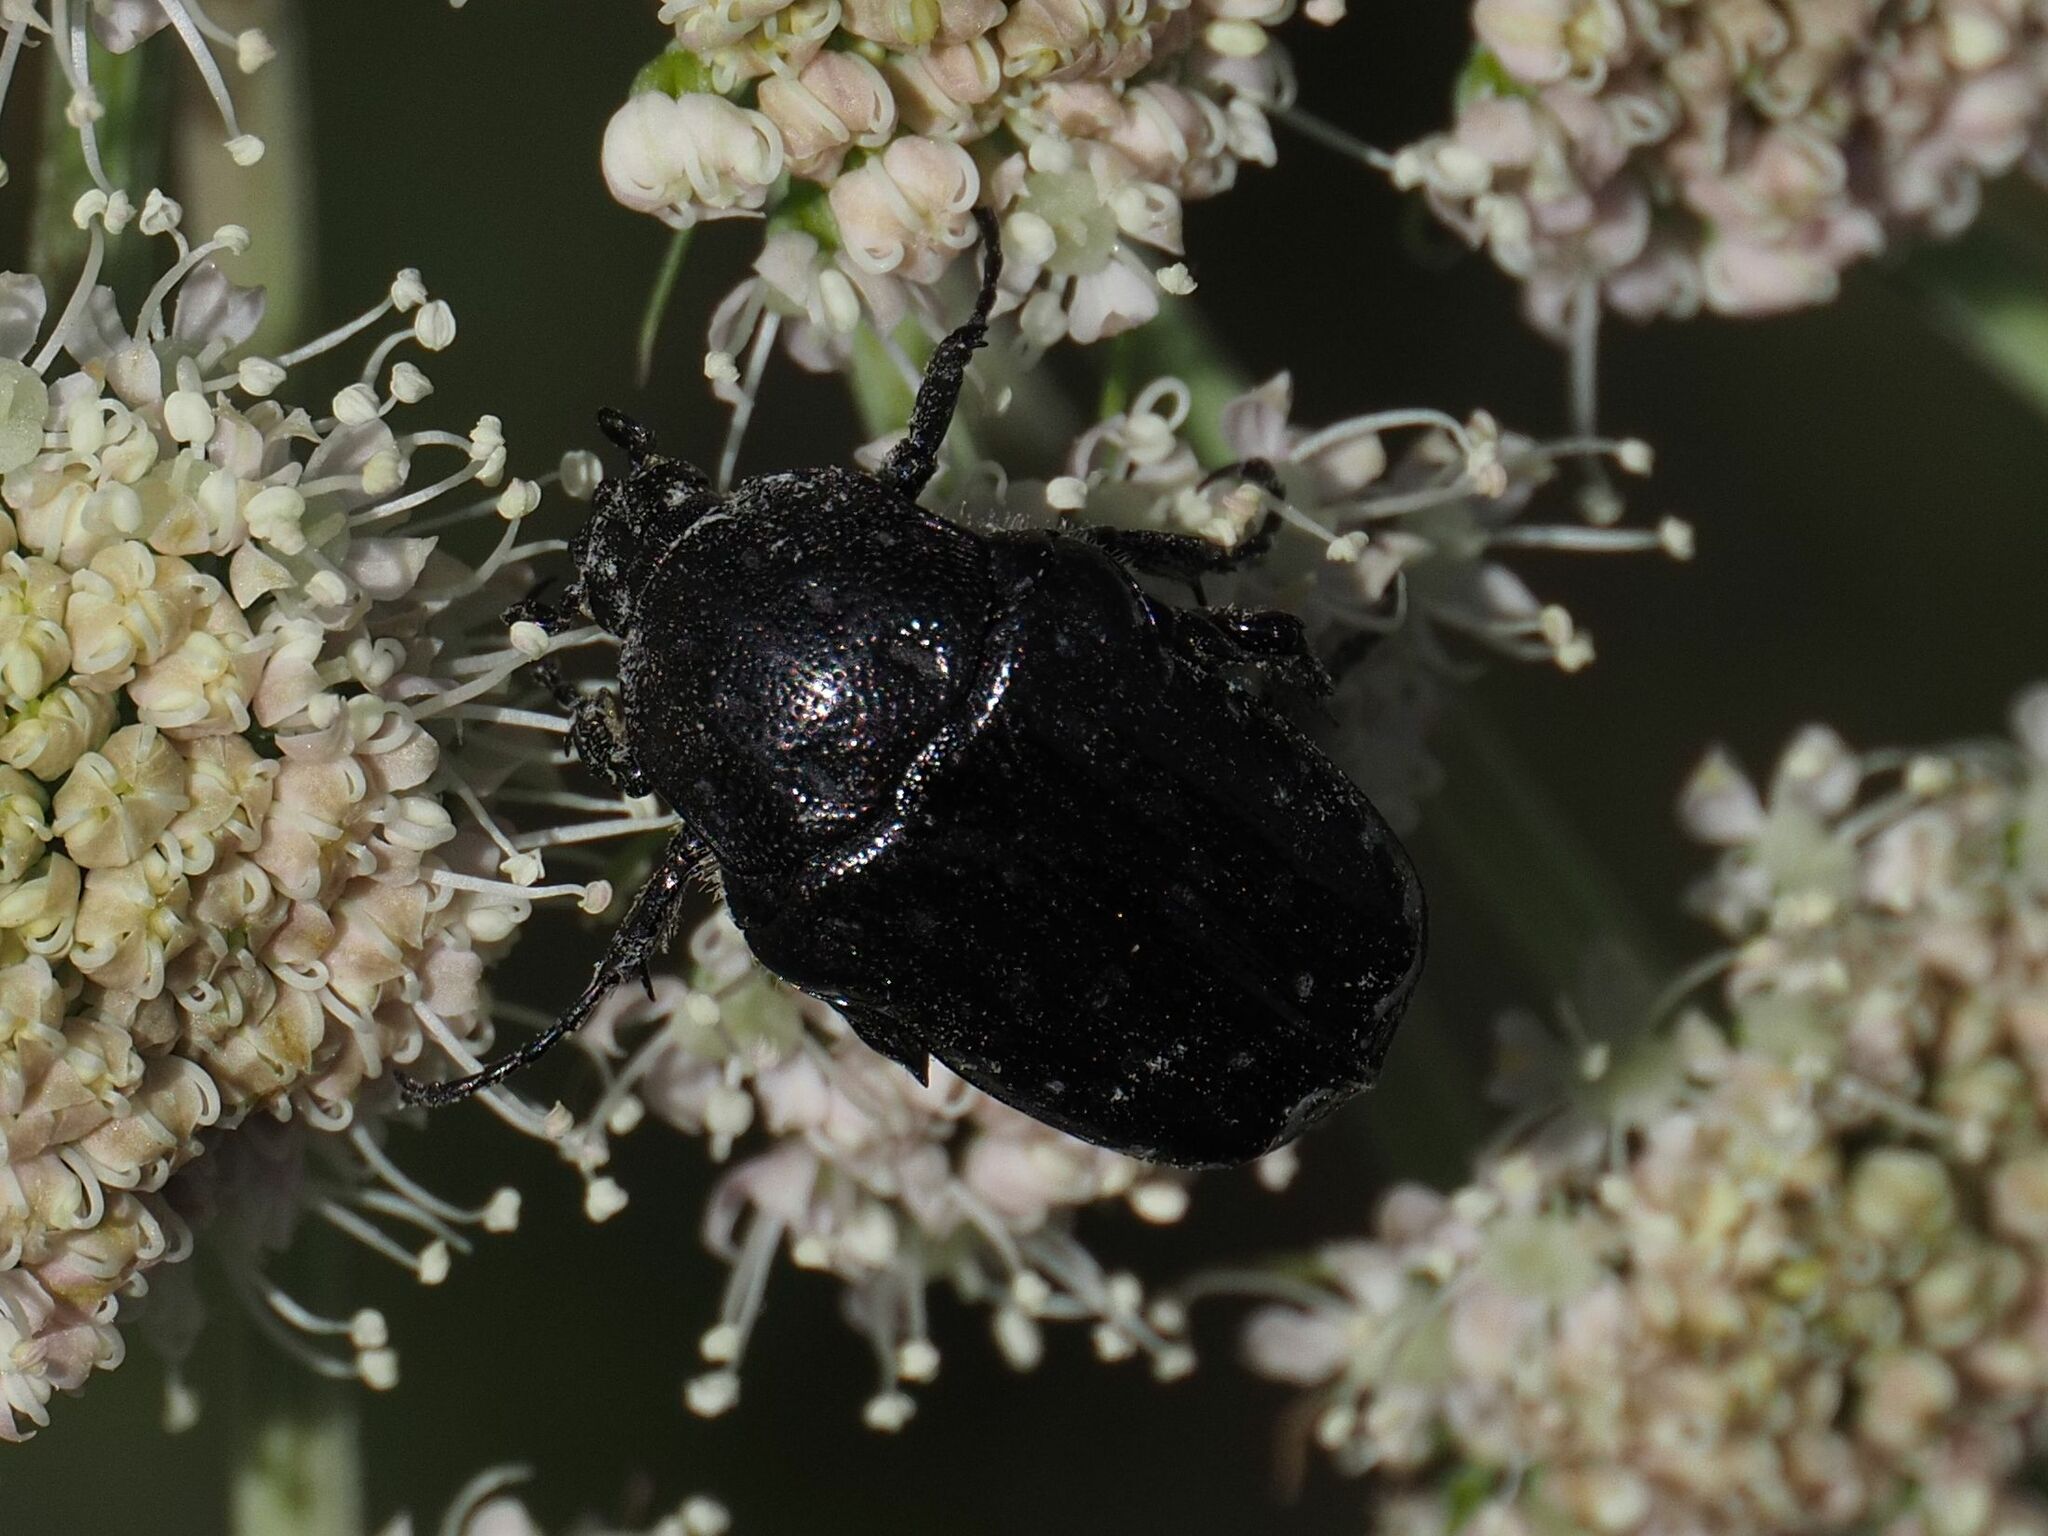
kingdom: Animalia
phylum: Arthropoda
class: Insecta
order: Coleoptera
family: Scarabaeidae
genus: Oxythyrea
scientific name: Oxythyrea funesta
